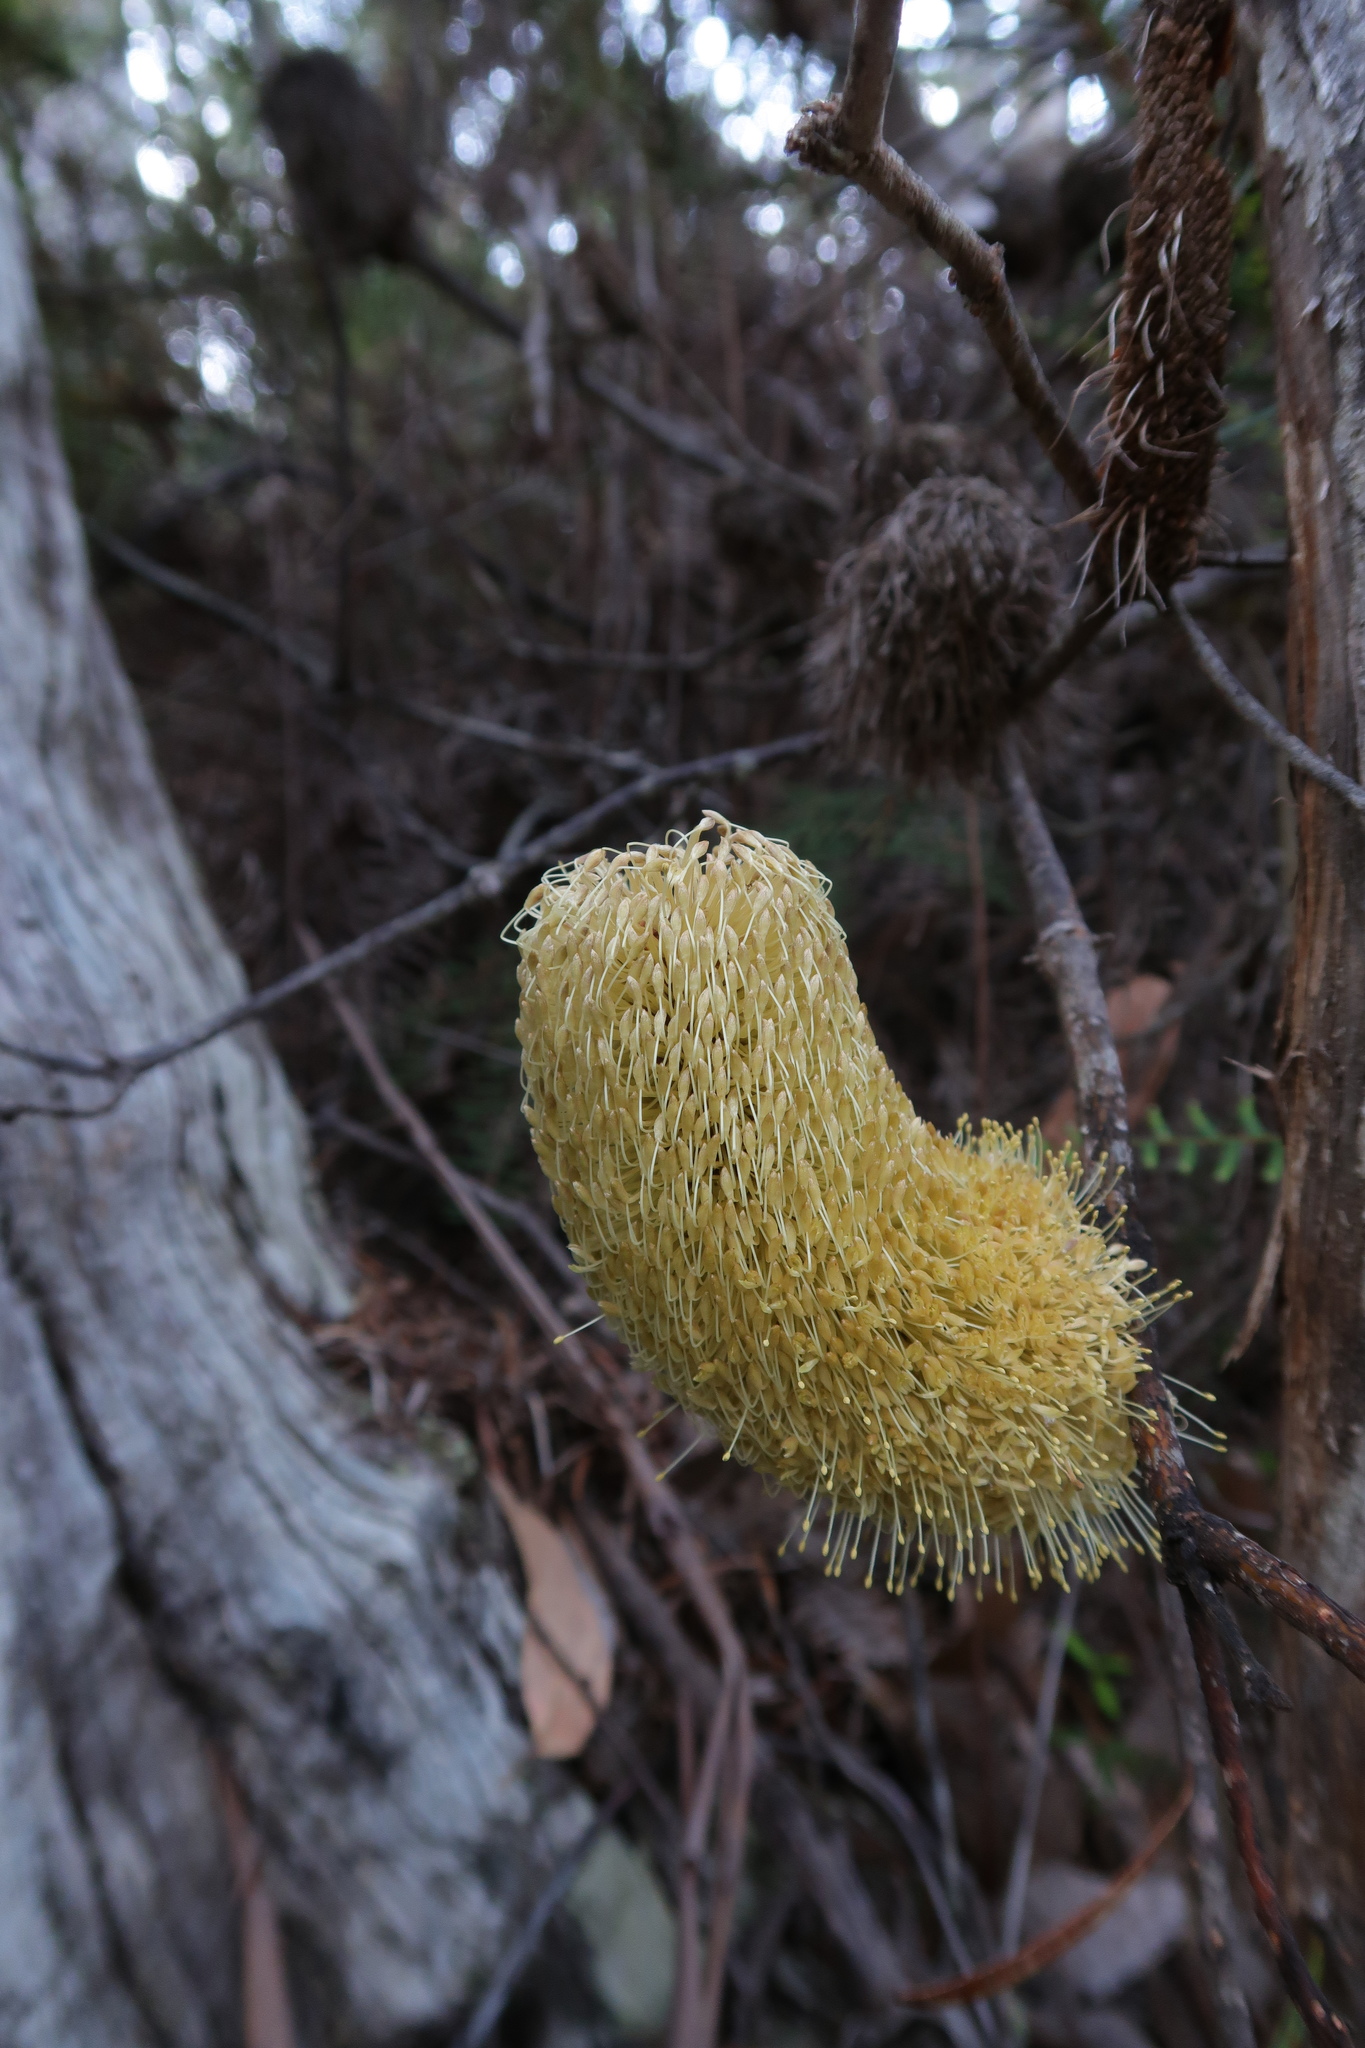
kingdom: Plantae
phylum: Tracheophyta
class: Magnoliopsida
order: Proteales
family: Proteaceae
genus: Banksia
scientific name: Banksia marginata
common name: Silver banksia
